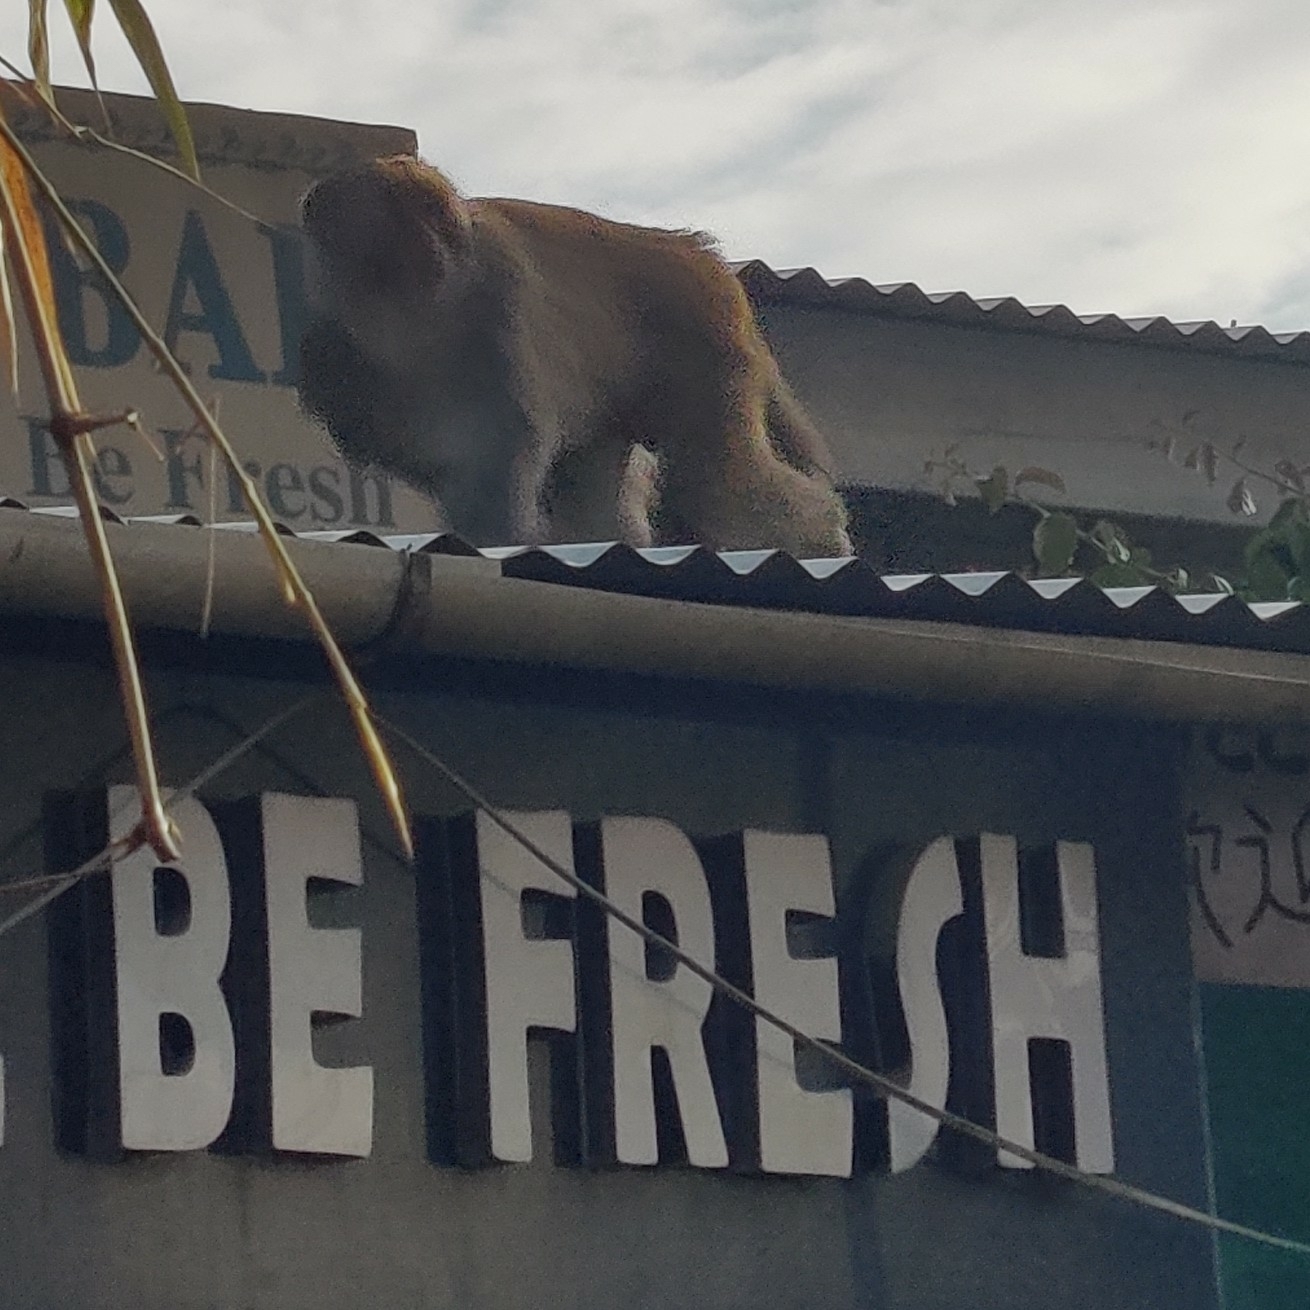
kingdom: Animalia
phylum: Chordata
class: Mammalia
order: Primates
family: Cercopithecidae
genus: Macaca
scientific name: Macaca mulatta
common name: Rhesus monkey
